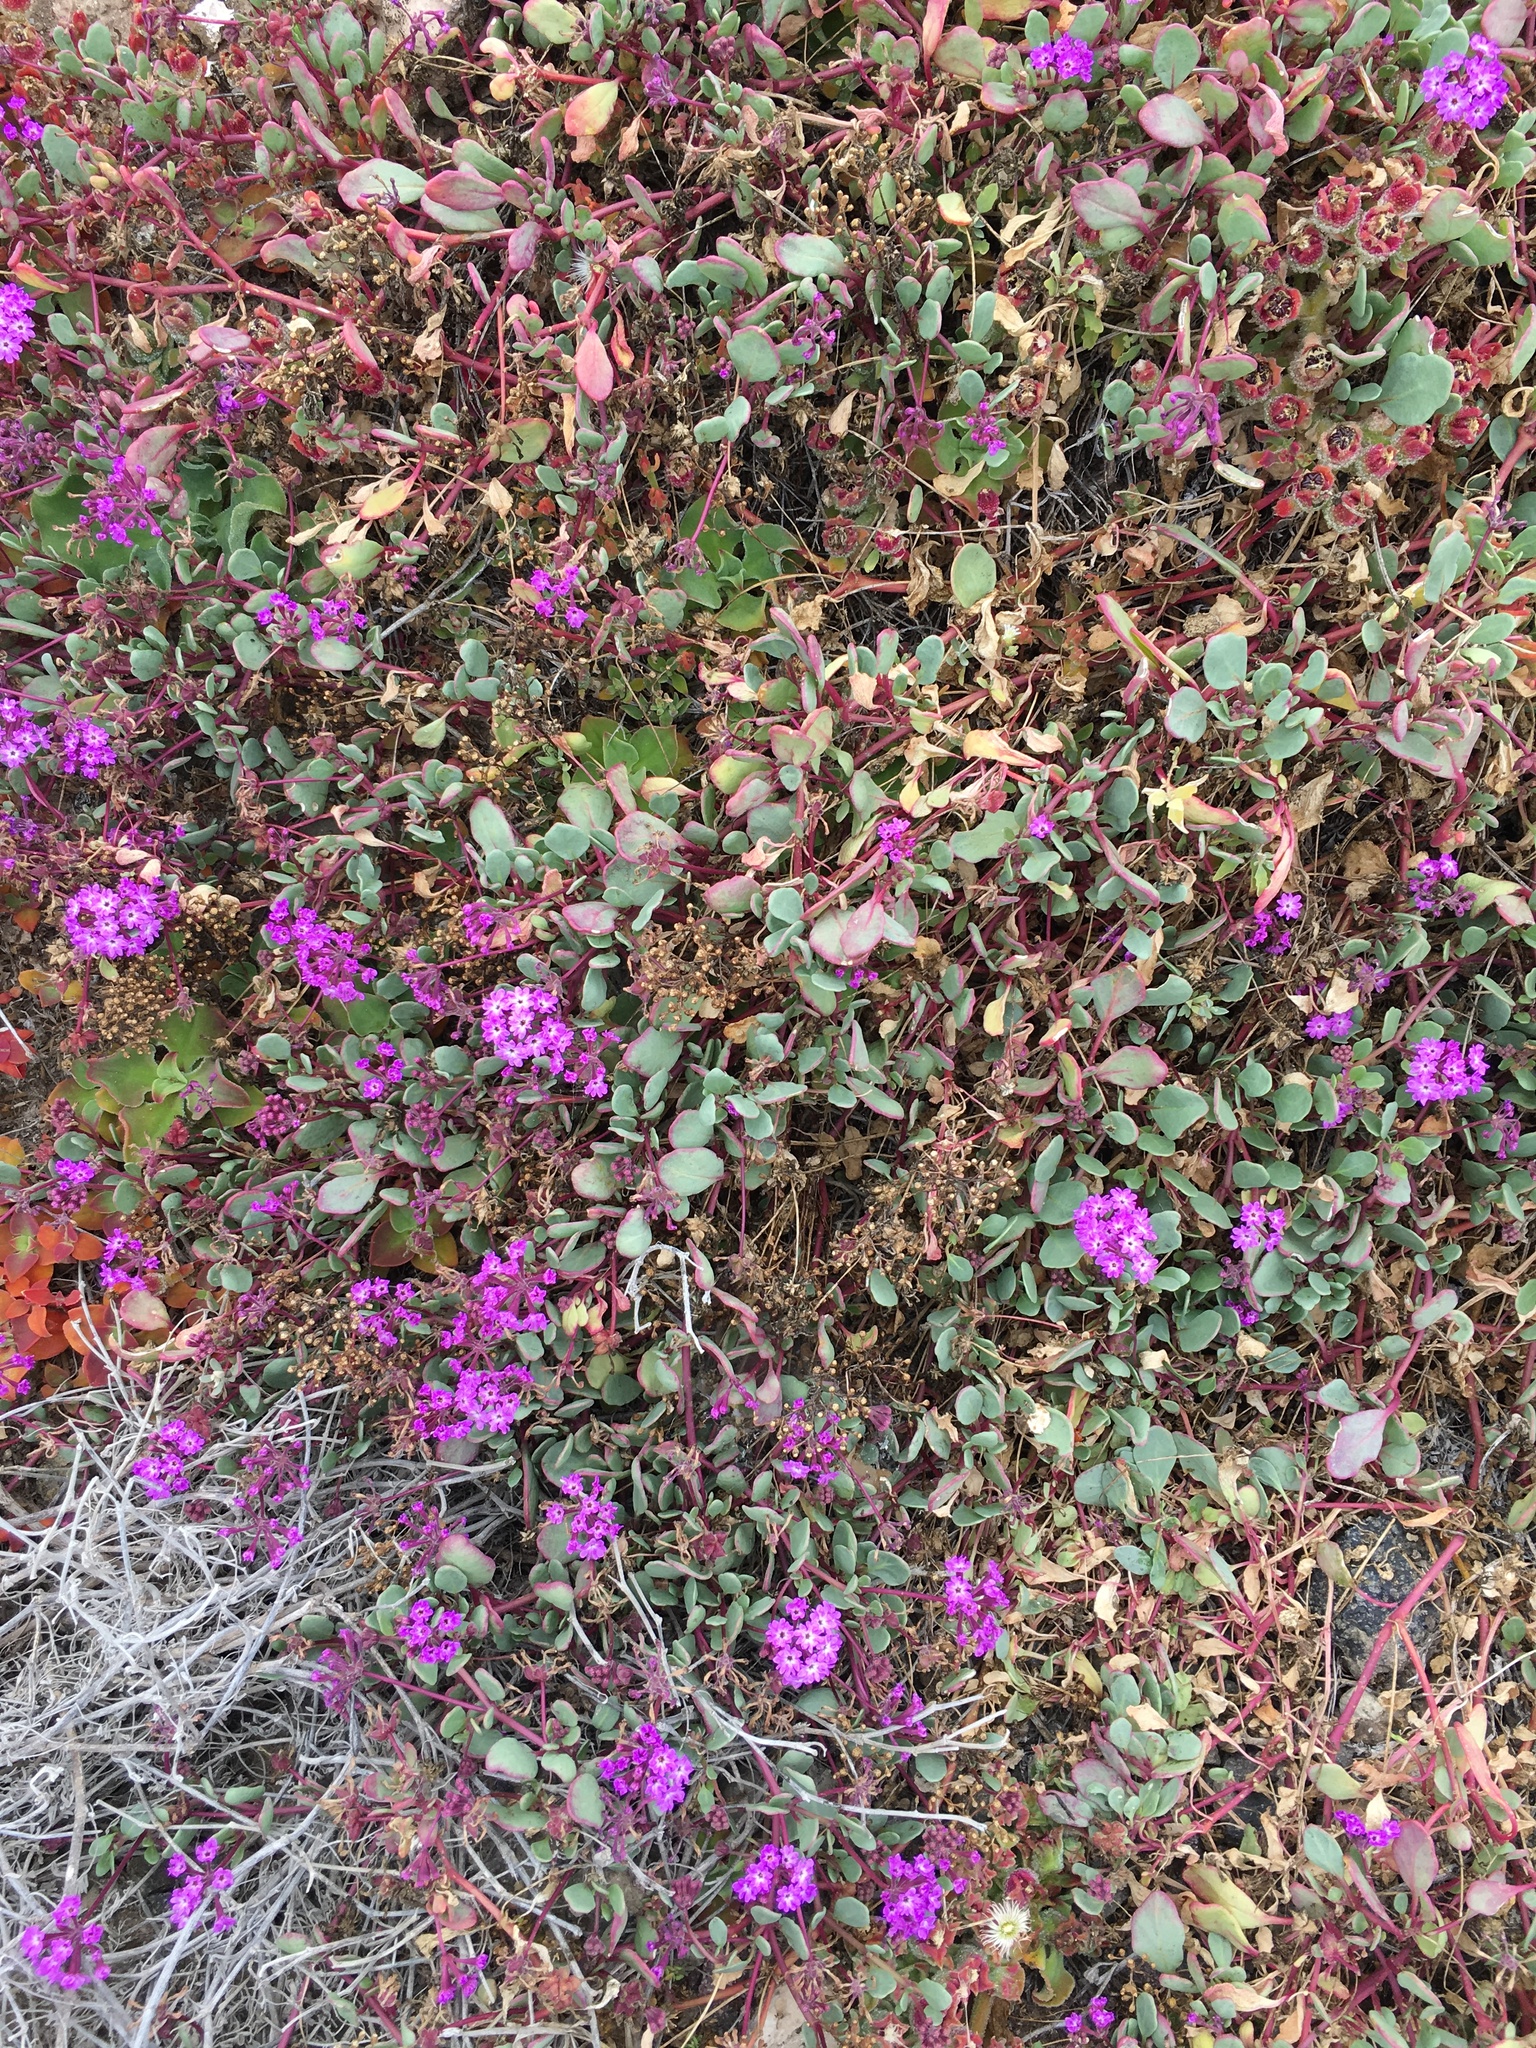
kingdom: Plantae
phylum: Tracheophyta
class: Magnoliopsida
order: Caryophyllales
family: Nyctaginaceae
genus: Abronia
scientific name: Abronia umbellata
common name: Sand-verbena
